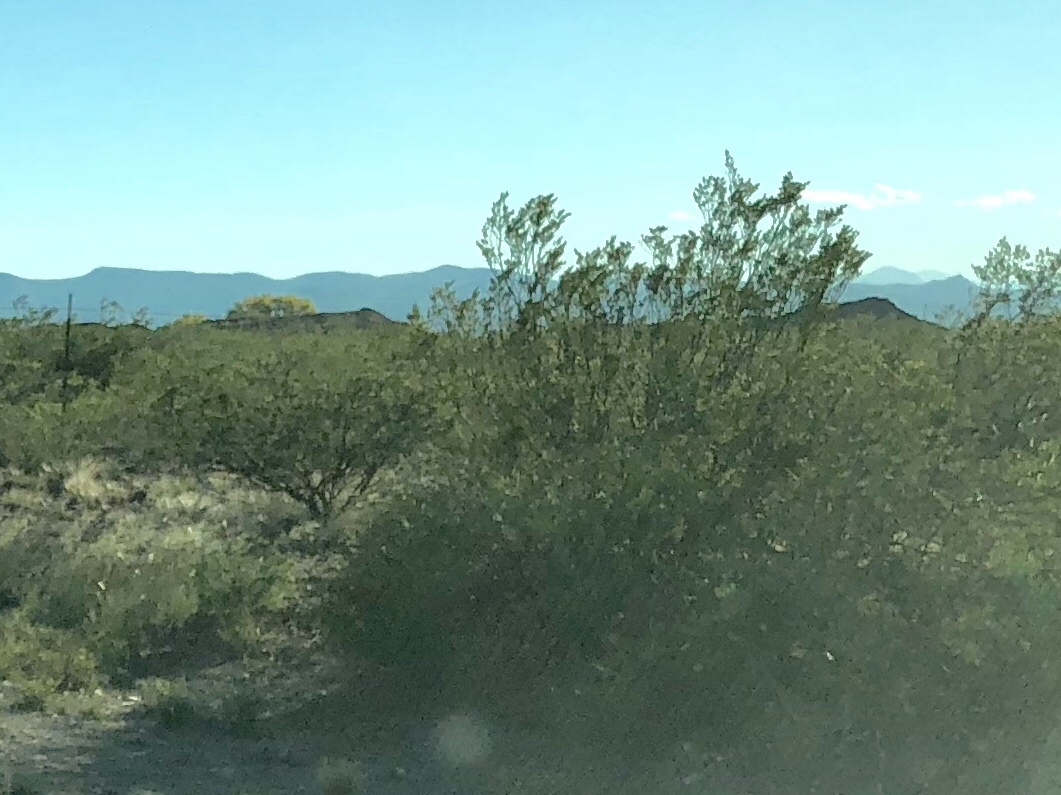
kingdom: Plantae
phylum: Tracheophyta
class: Magnoliopsida
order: Zygophyllales
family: Zygophyllaceae
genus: Larrea
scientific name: Larrea tridentata
